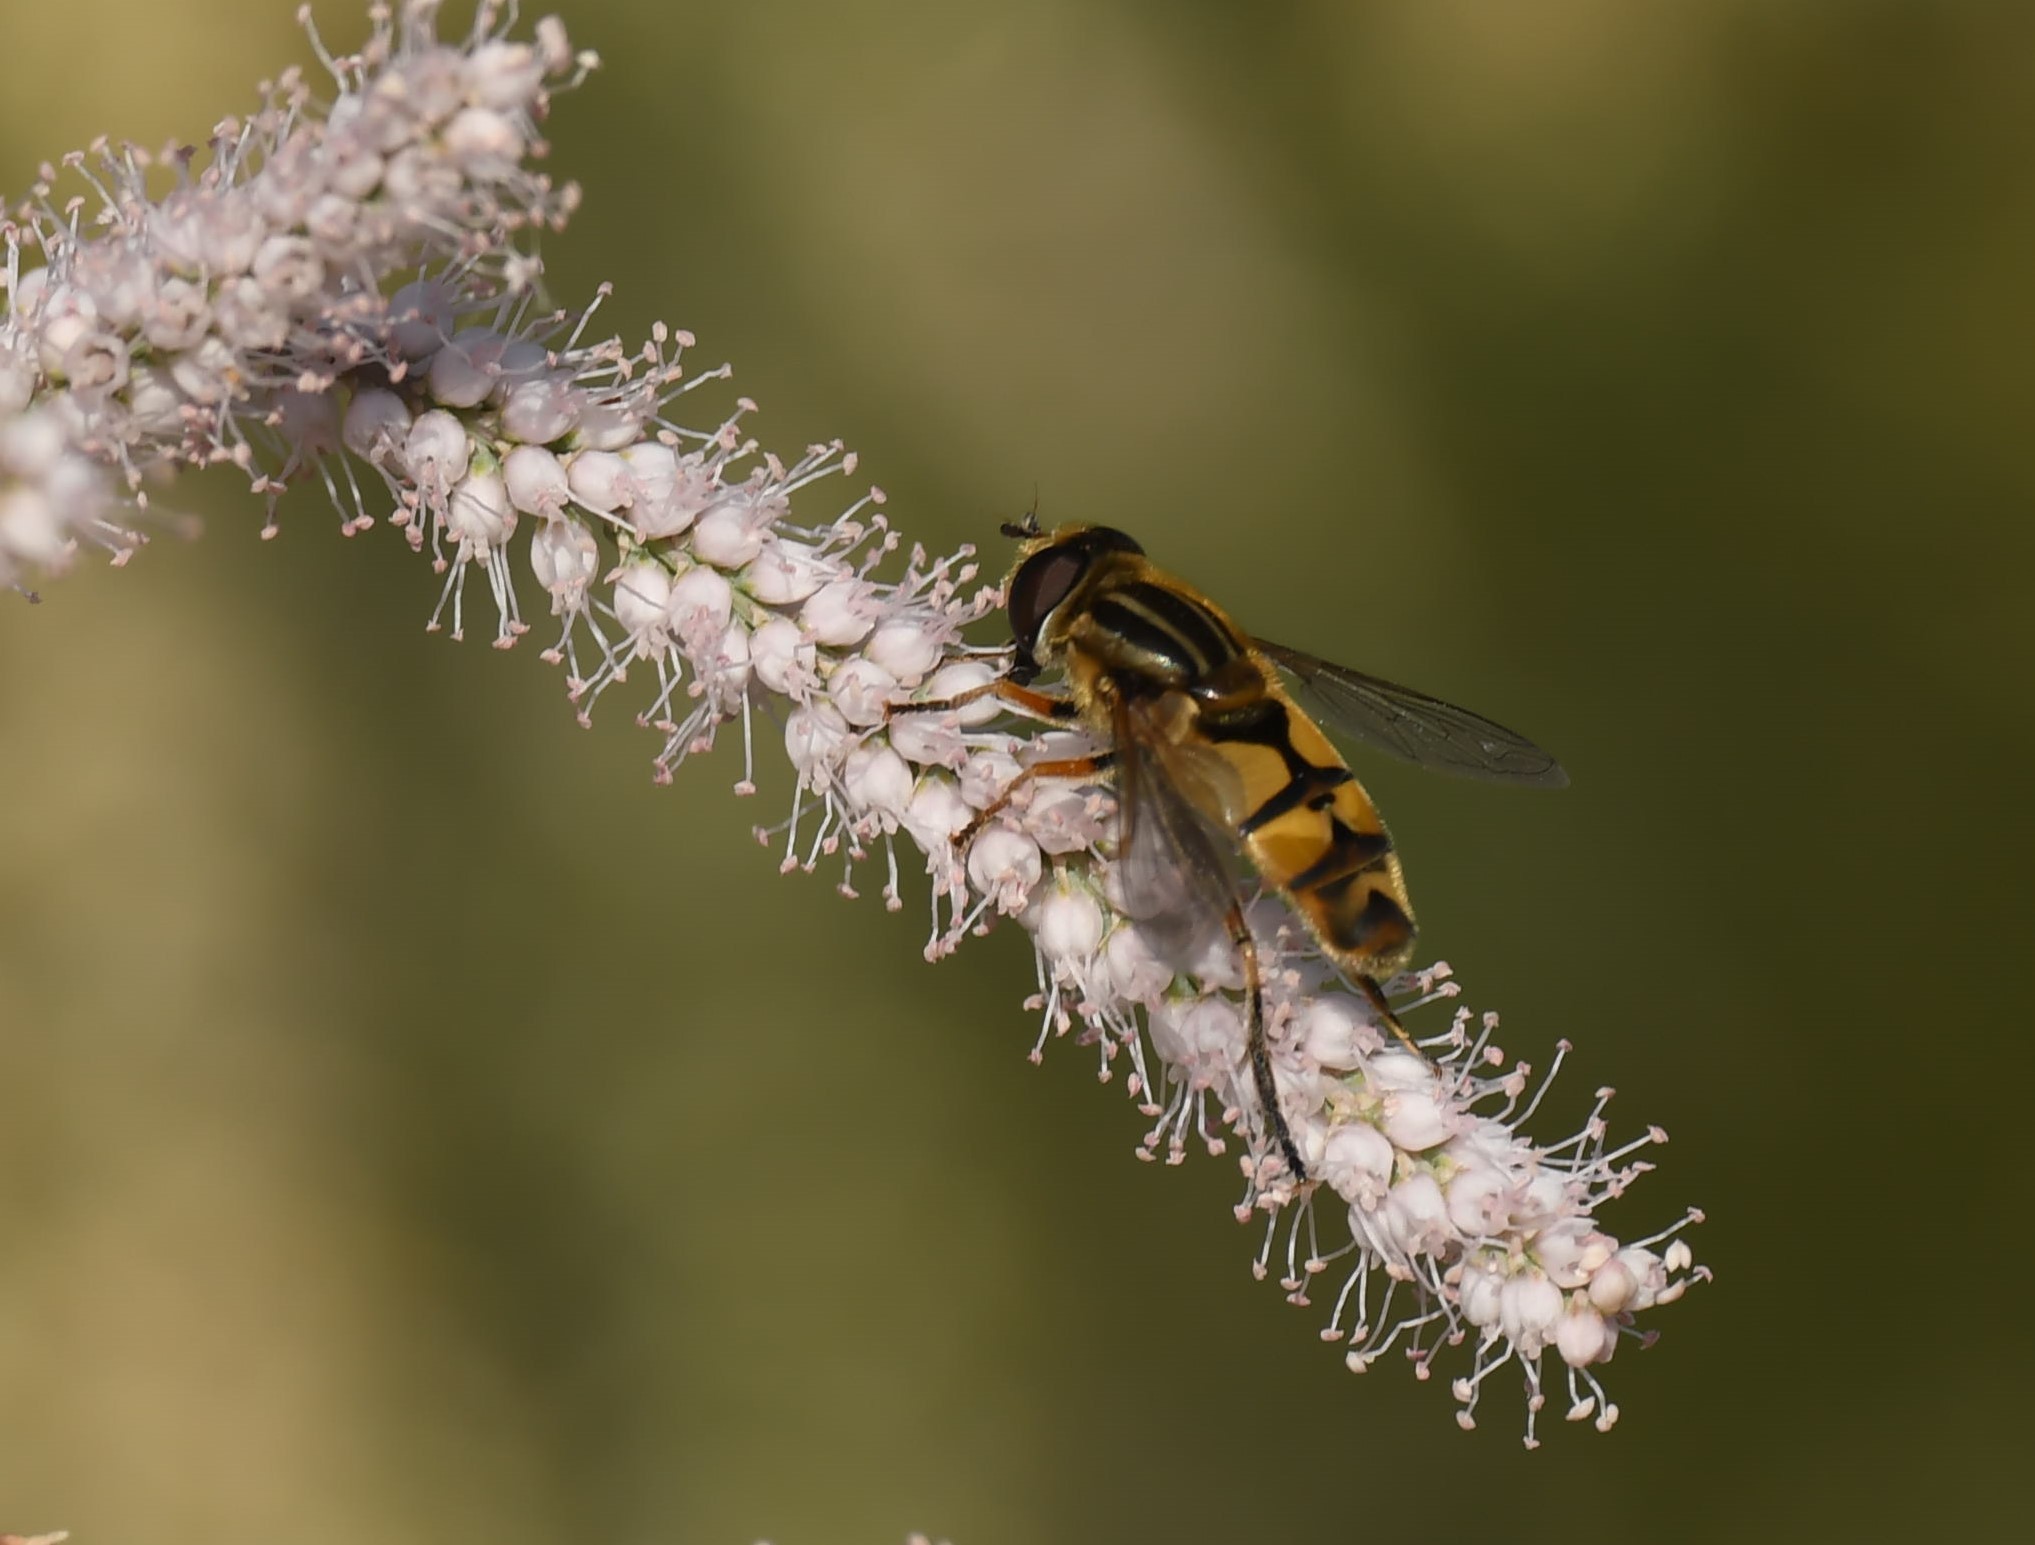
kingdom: Animalia
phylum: Arthropoda
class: Insecta
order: Diptera
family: Syrphidae
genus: Helophilus
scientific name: Helophilus latifrons
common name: Broad-headed marsh fly
